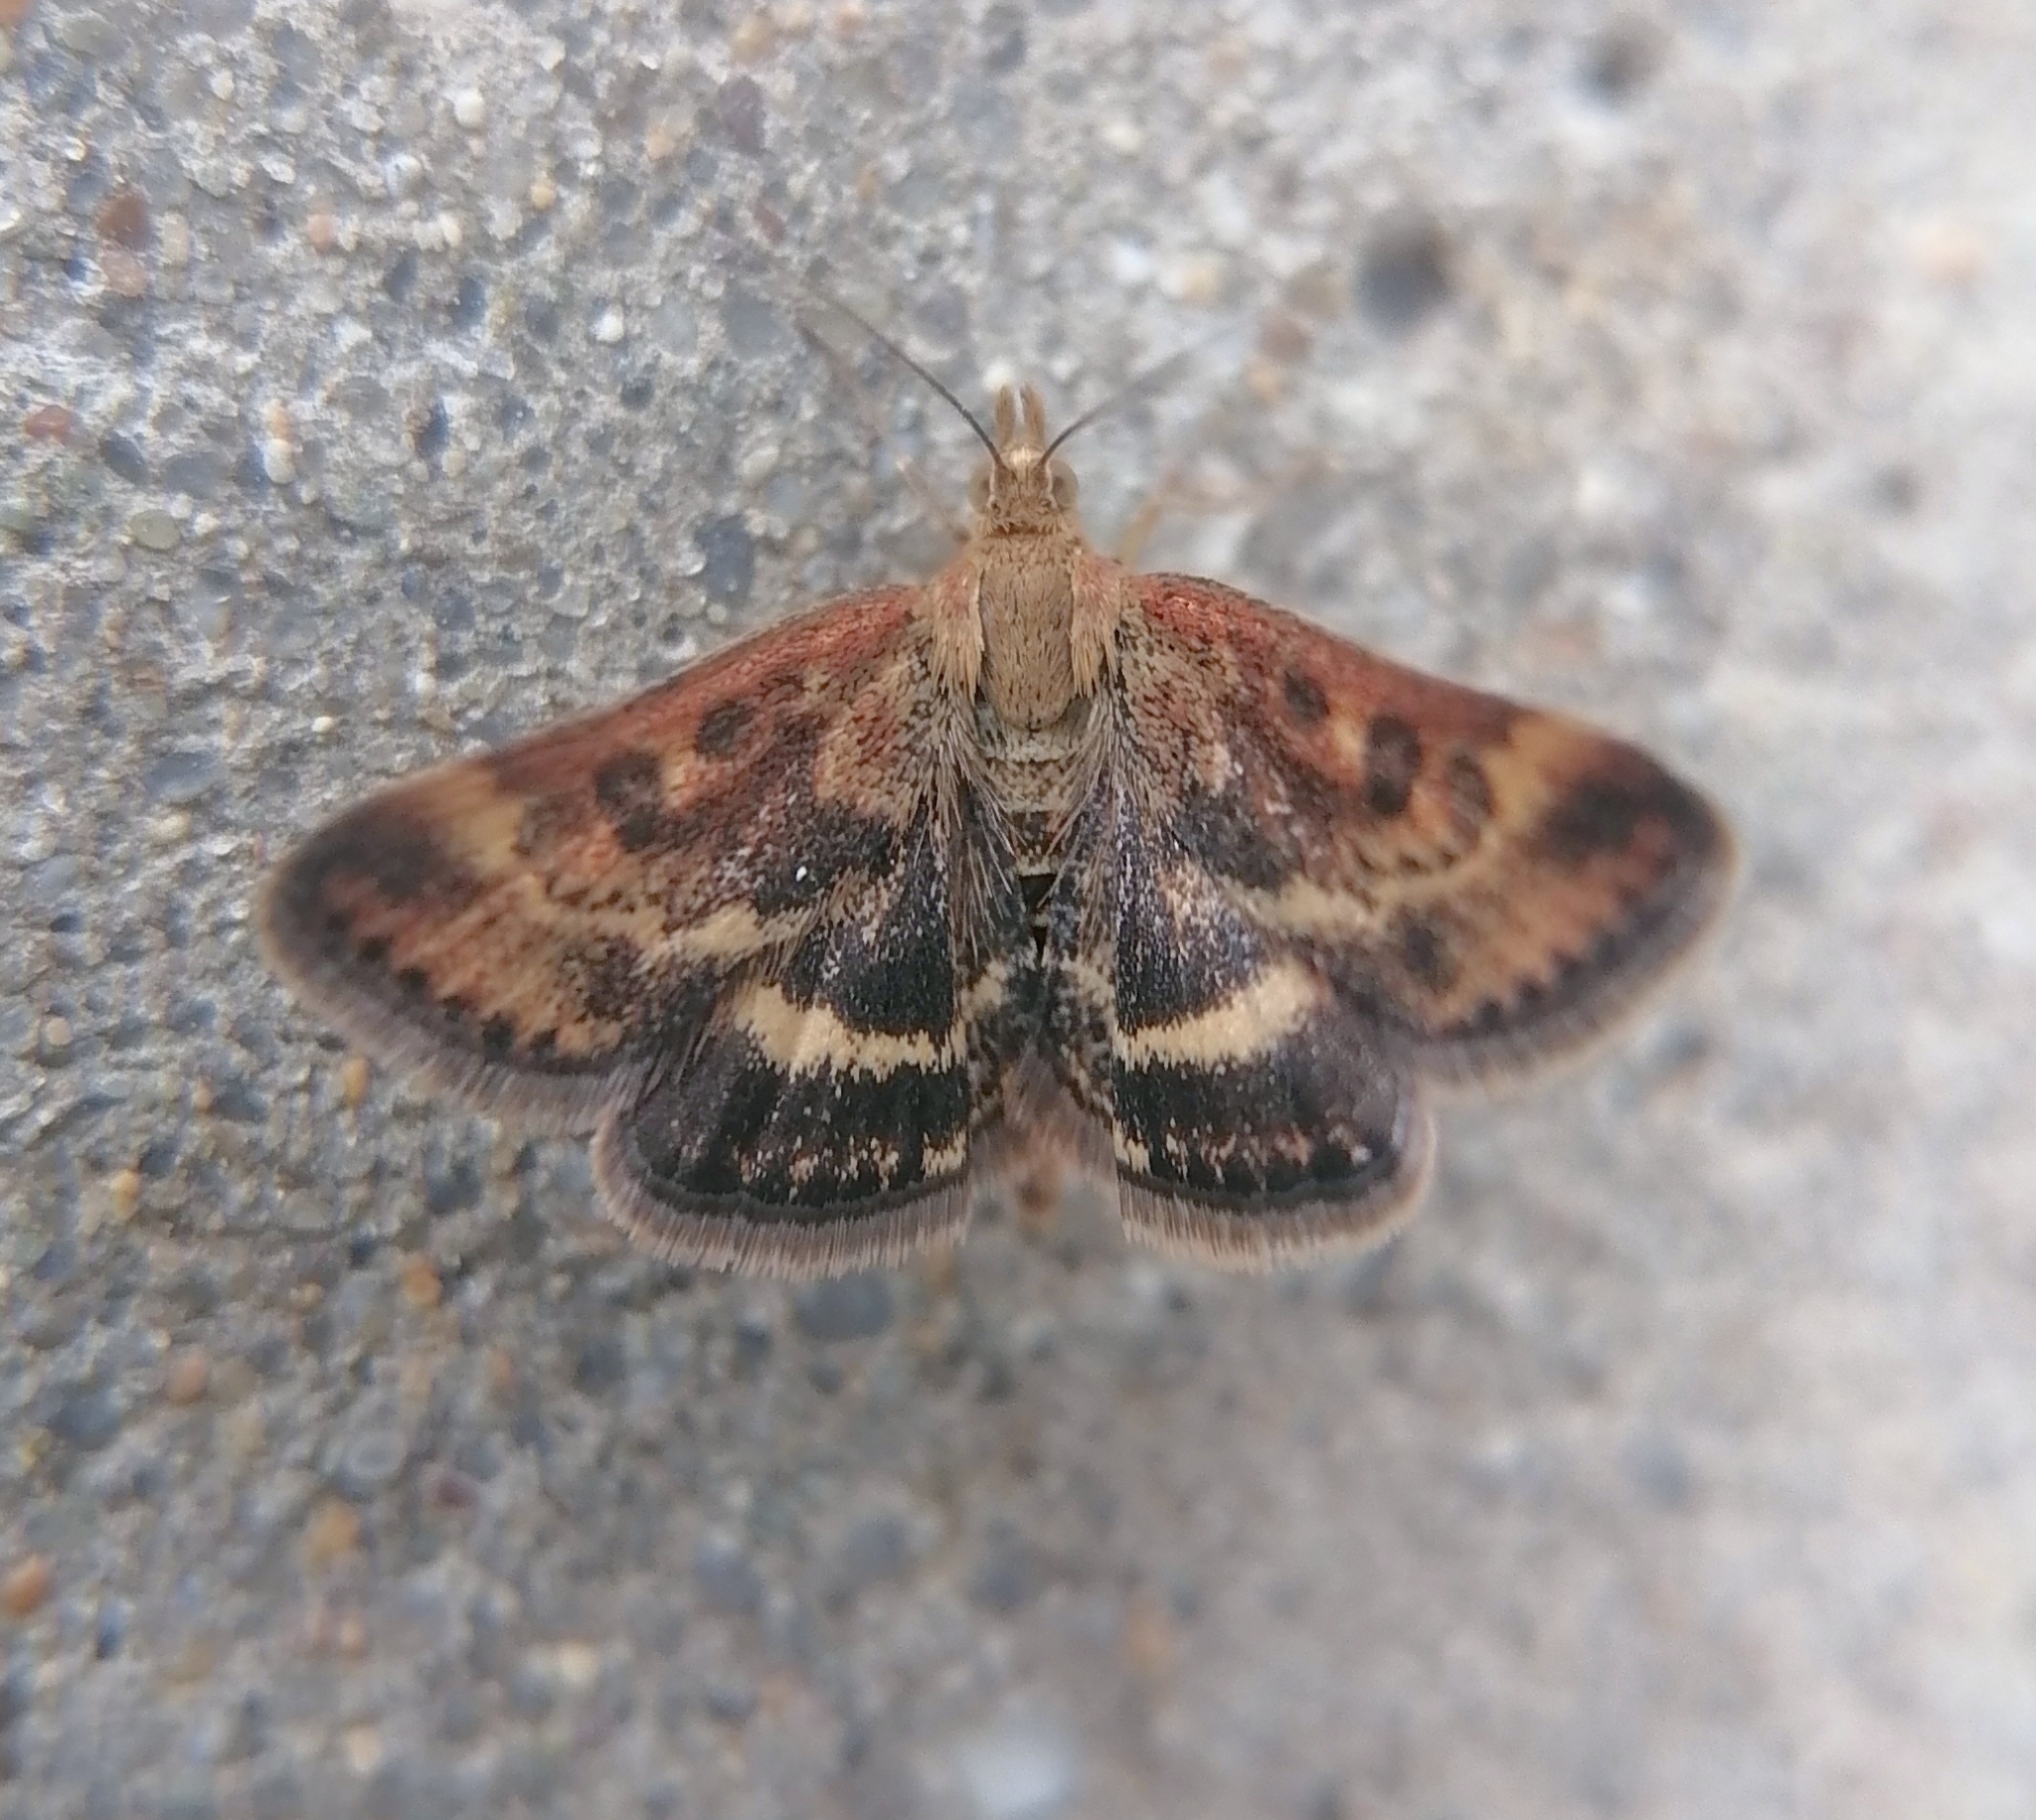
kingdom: Animalia
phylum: Arthropoda
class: Insecta
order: Lepidoptera
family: Crambidae
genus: Pyrausta
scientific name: Pyrausta despicata
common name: Straw-barred pearl
